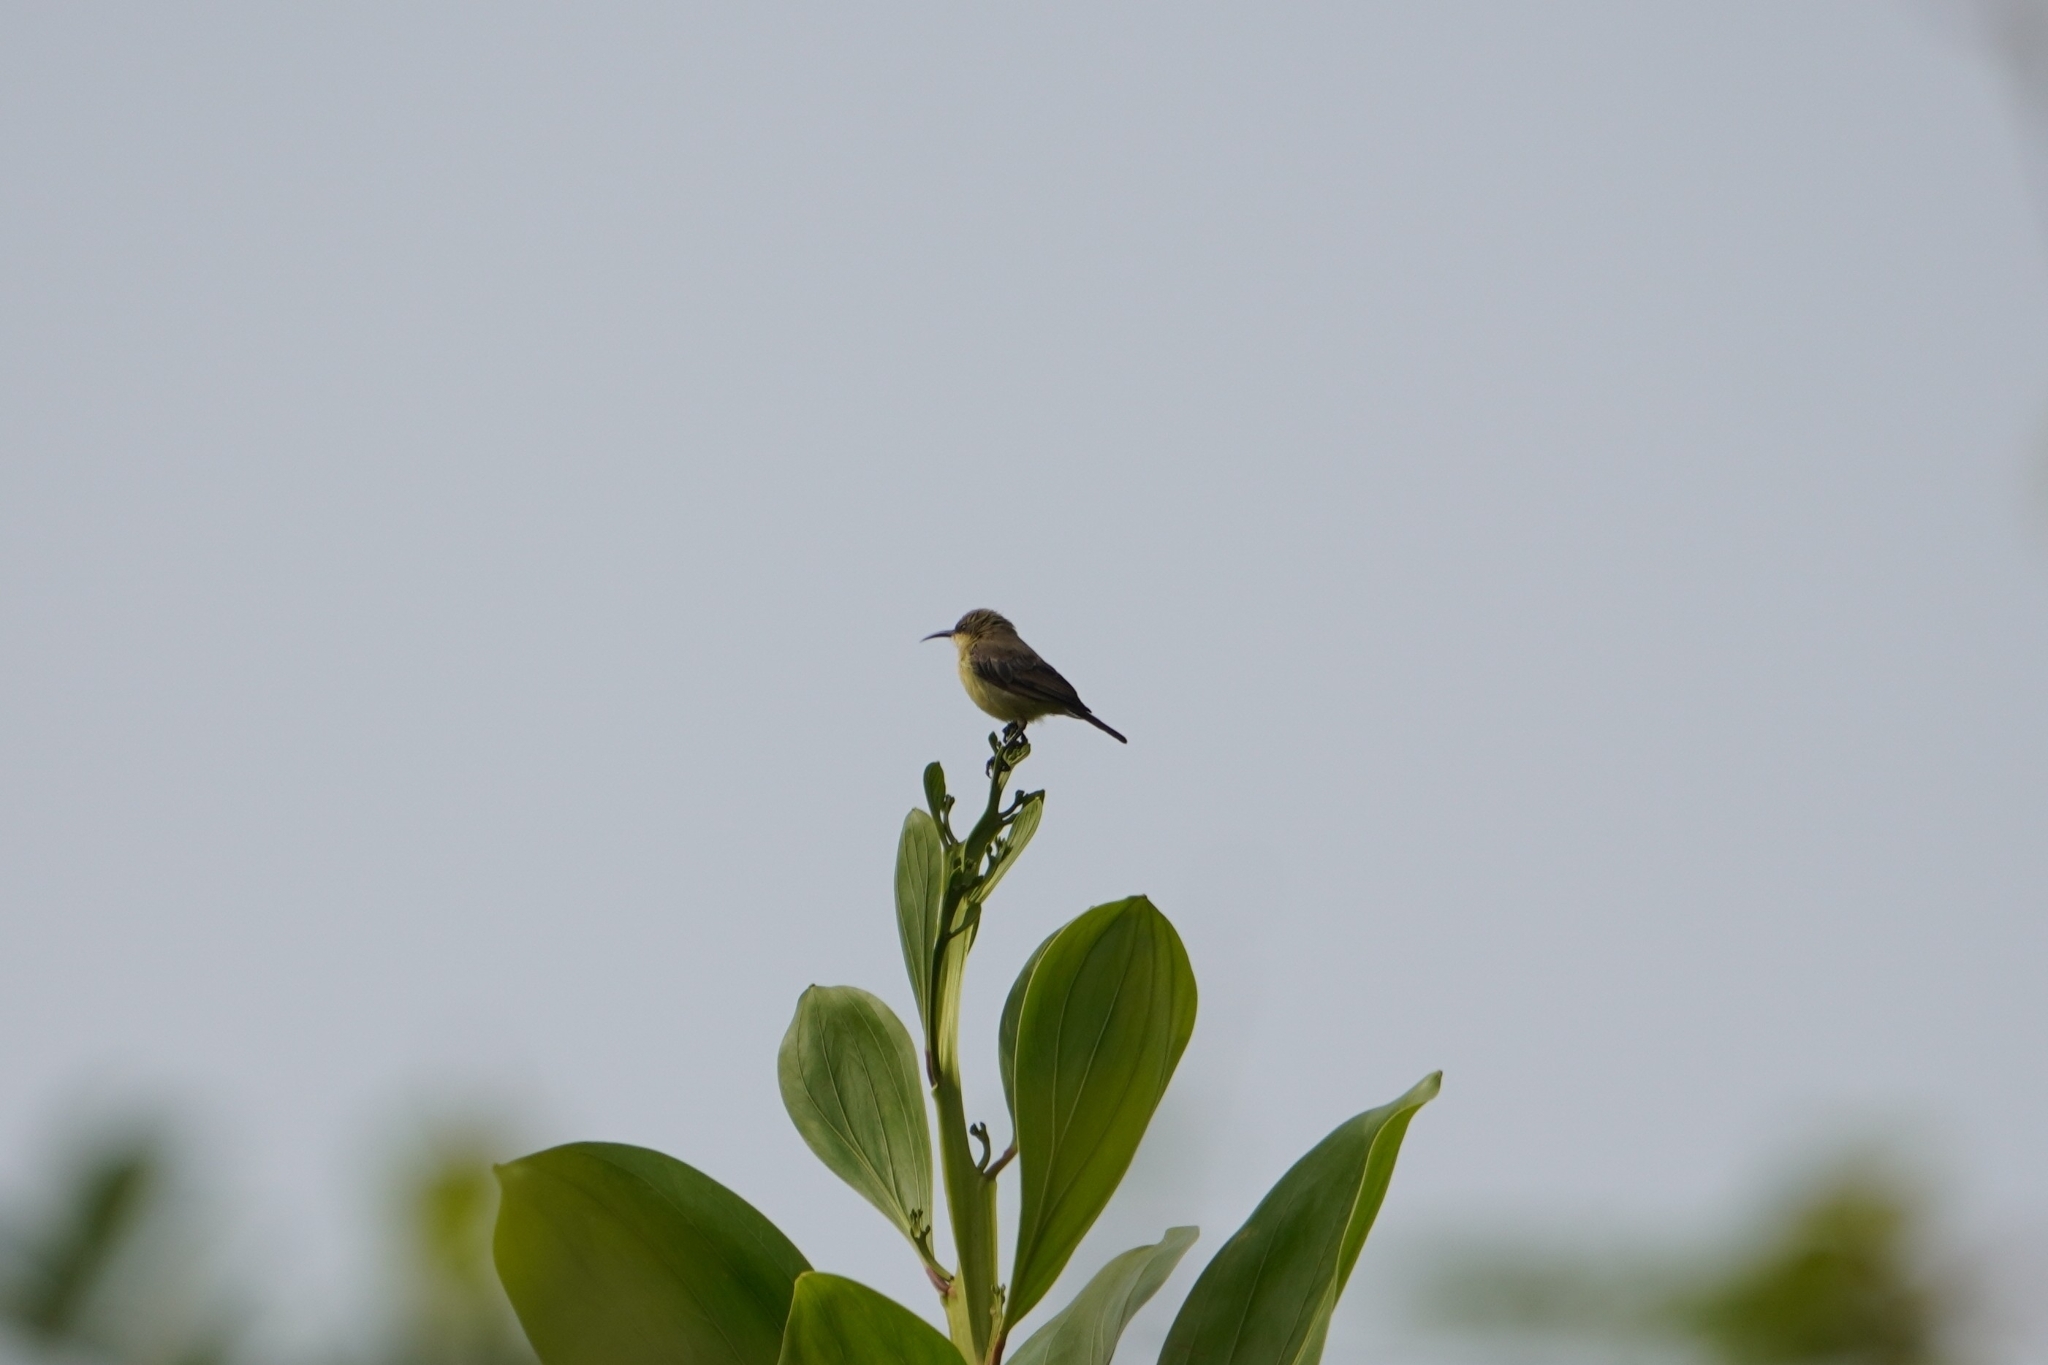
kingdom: Animalia
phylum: Chordata
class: Aves
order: Passeriformes
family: Nectariniidae
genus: Cinnyris
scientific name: Cinnyris cupreus
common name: Copper sunbird
